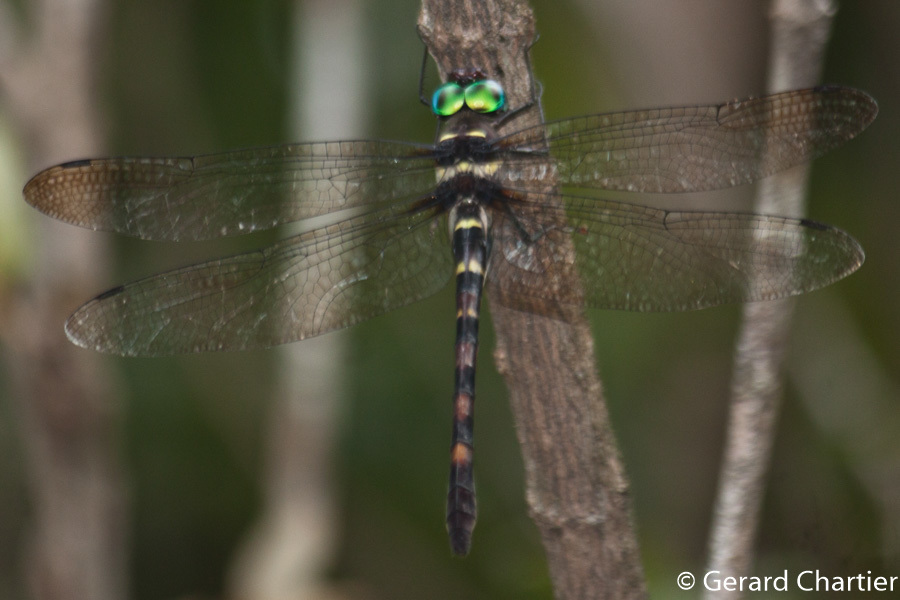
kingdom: Animalia
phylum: Arthropoda
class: Insecta
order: Odonata
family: Macromiidae
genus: Macromia
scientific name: Macromia cincta
